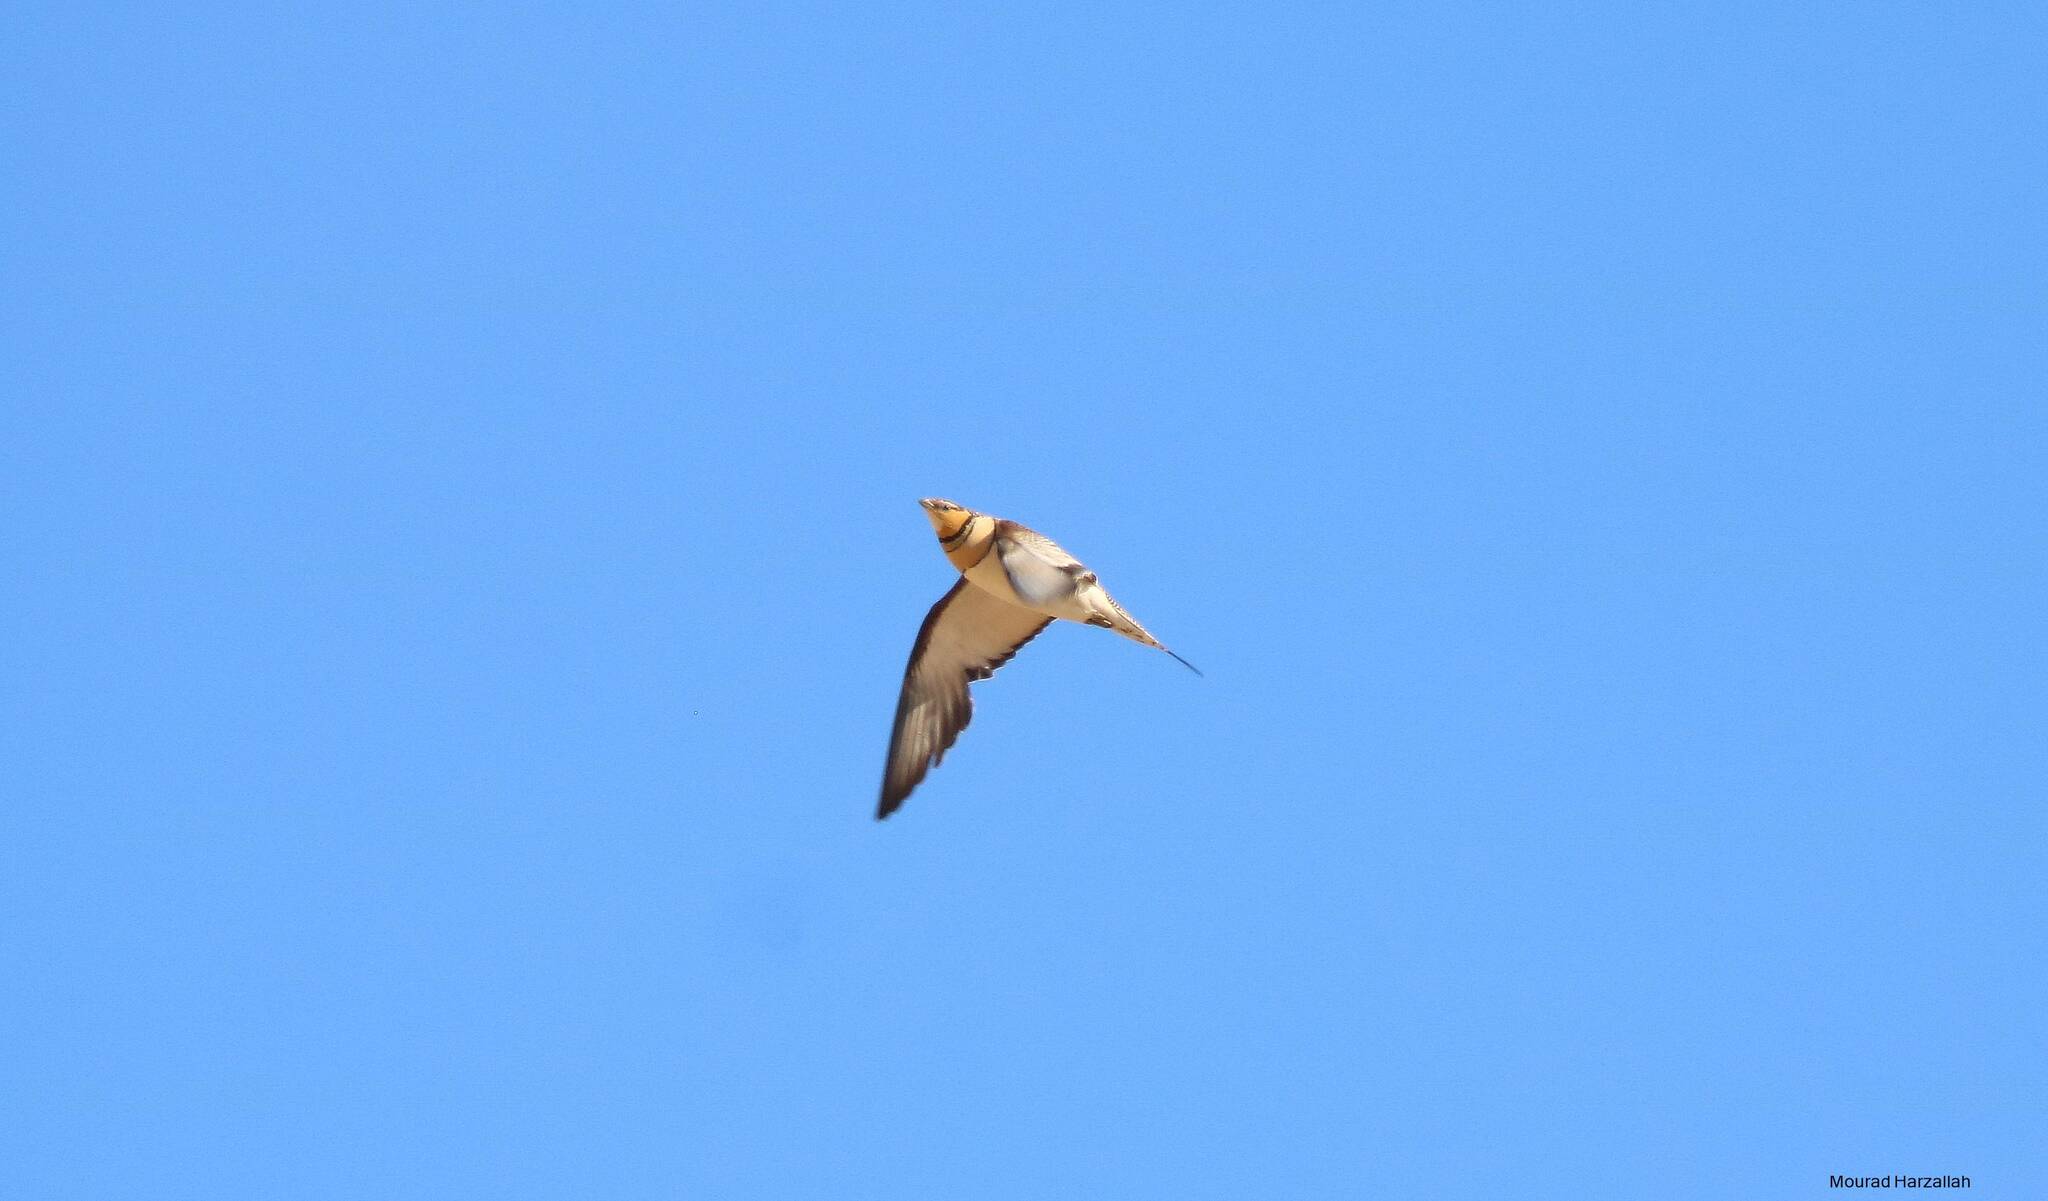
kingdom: Animalia
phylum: Chordata
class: Aves
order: Pteroclidiformes
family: Pteroclididae
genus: Pterocles
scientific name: Pterocles alchata
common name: Pin-tailed sandgrouse
